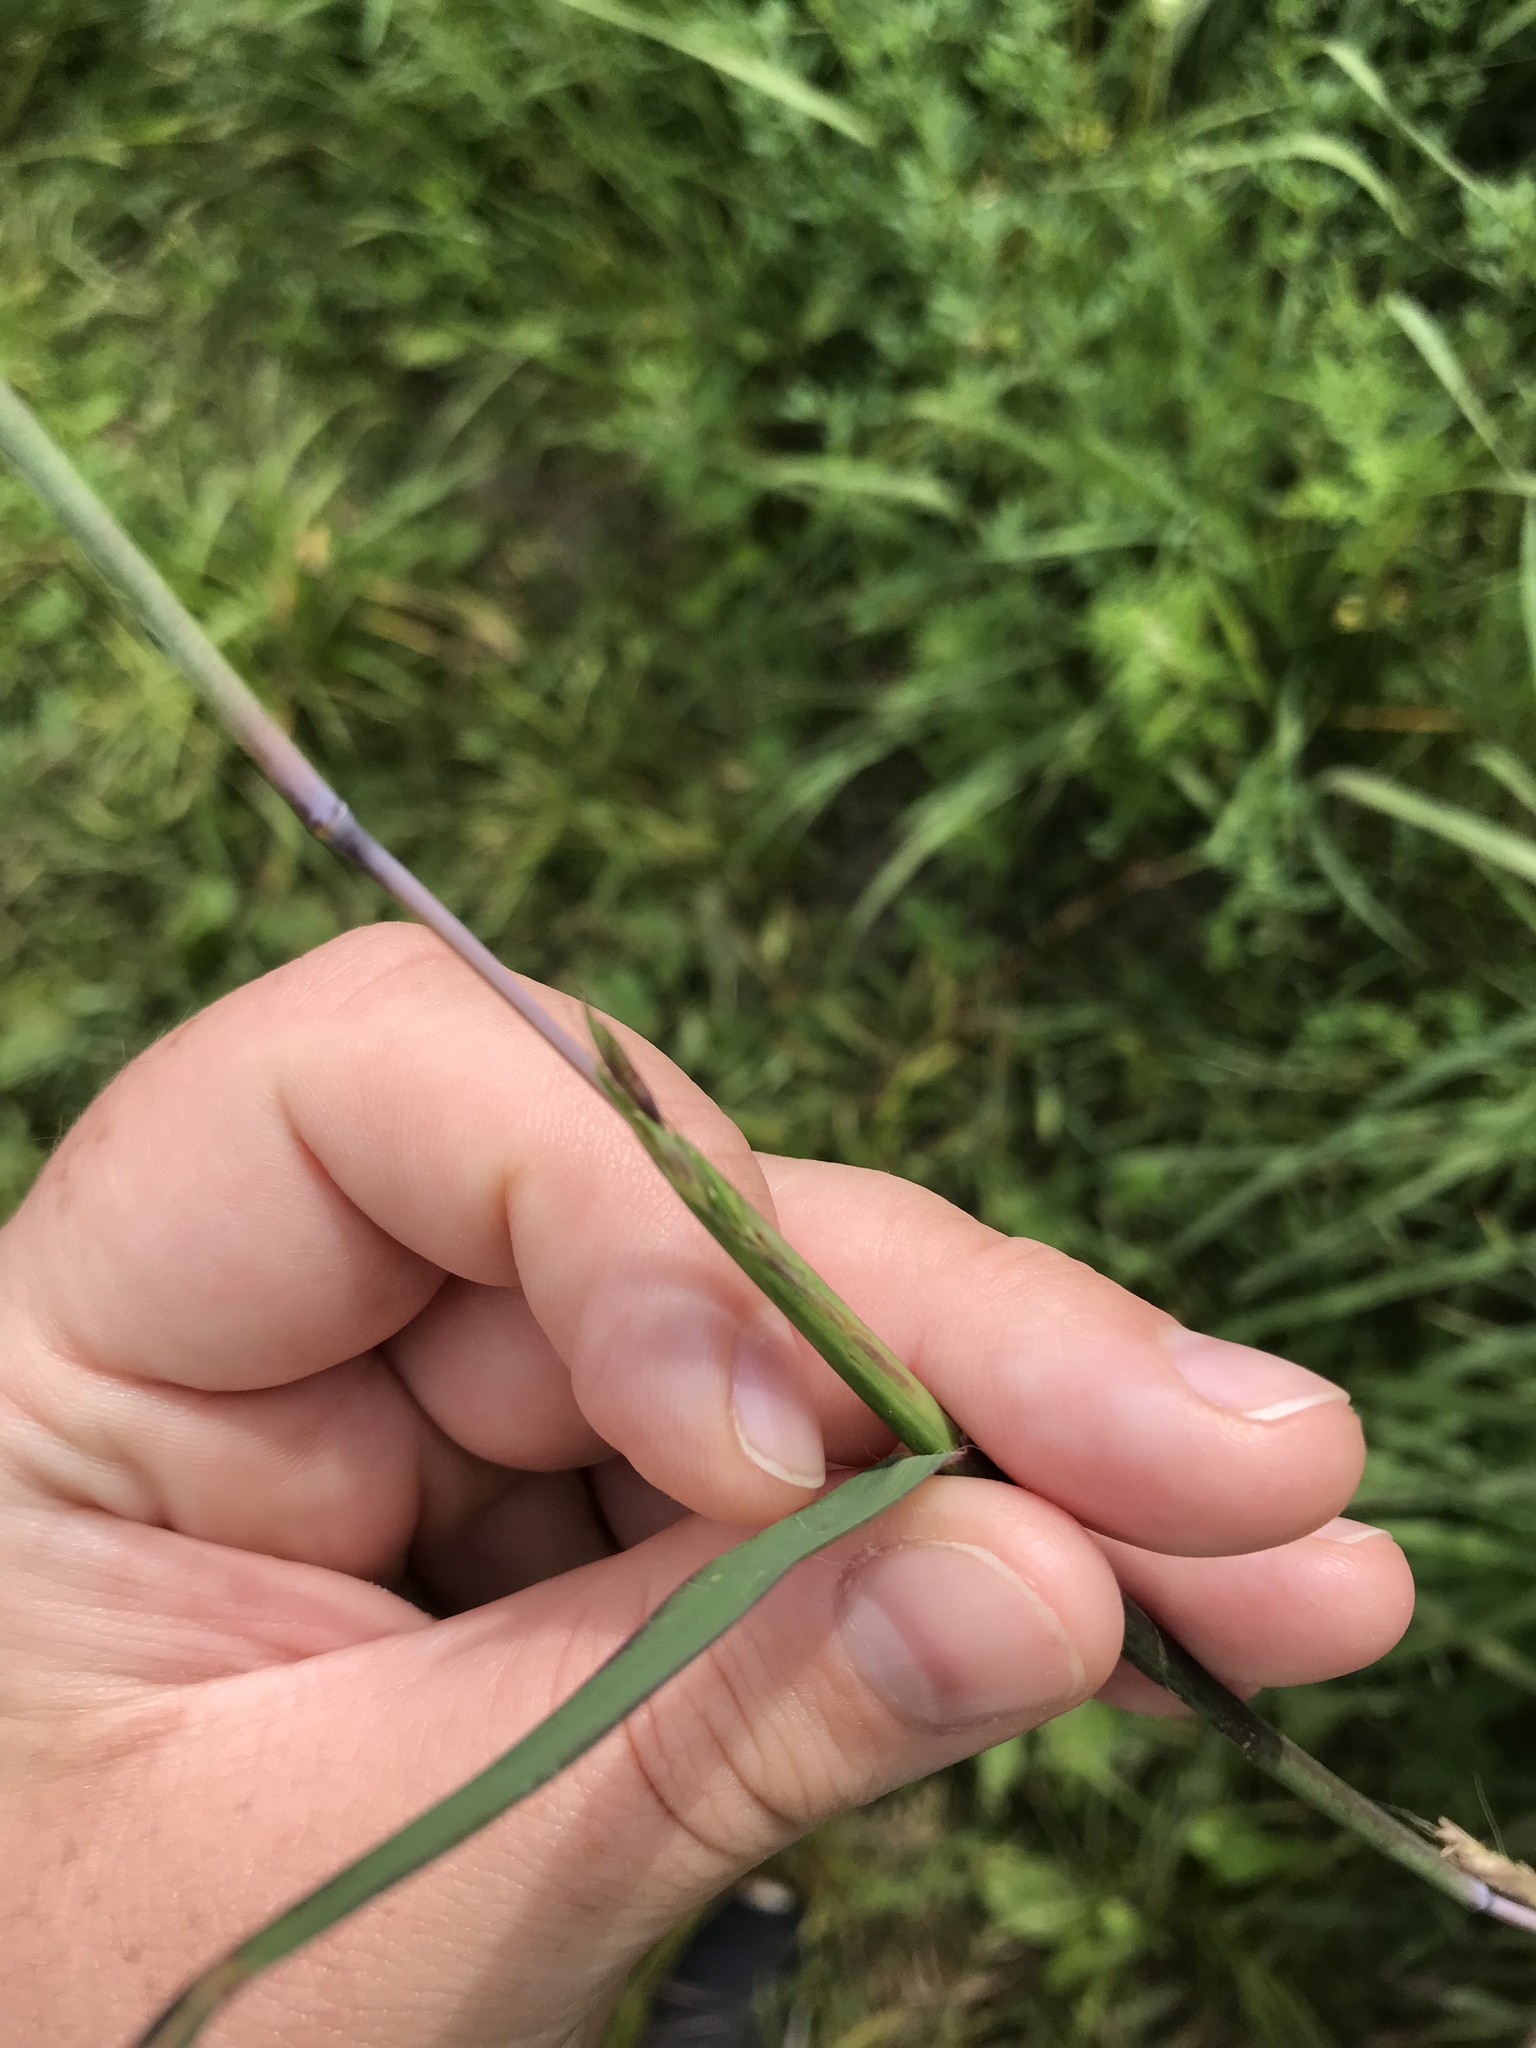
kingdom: Plantae
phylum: Tracheophyta
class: Liliopsida
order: Poales
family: Poaceae
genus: Andropogon
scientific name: Andropogon gerardi
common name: Big bluestem
